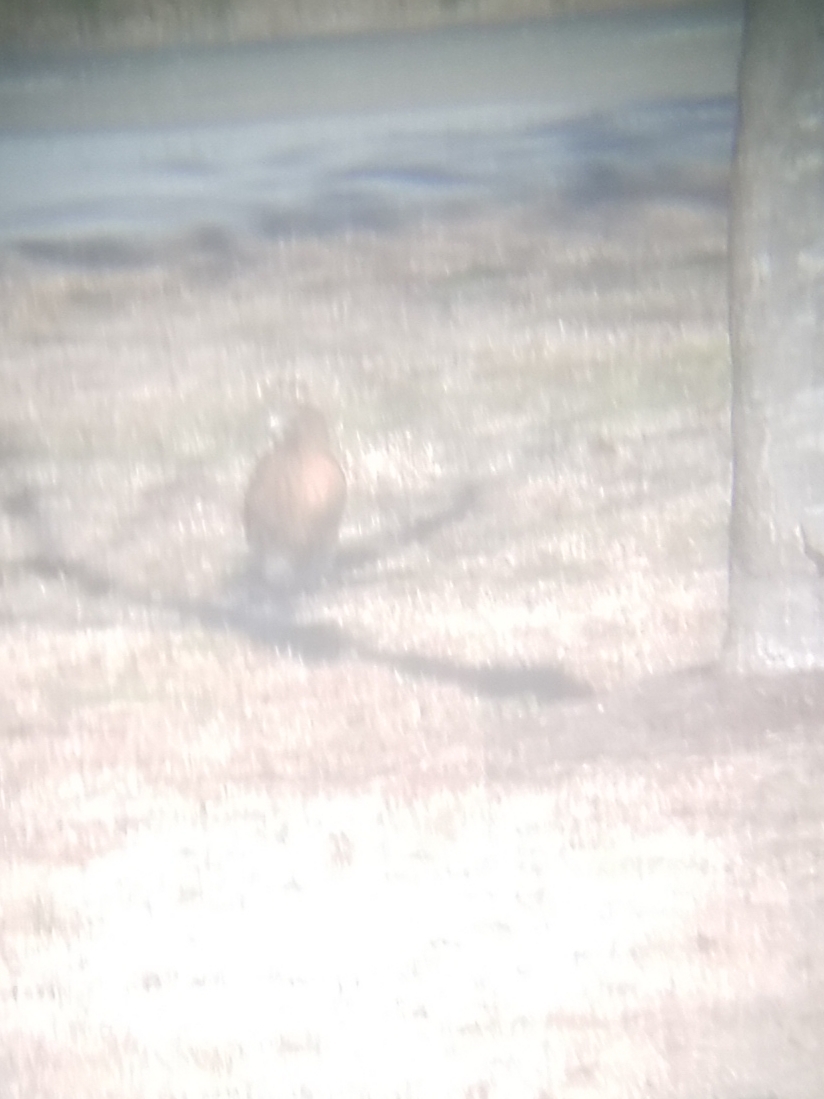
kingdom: Animalia
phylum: Chordata
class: Aves
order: Accipitriformes
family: Accipitridae
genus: Buteo
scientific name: Buteo
